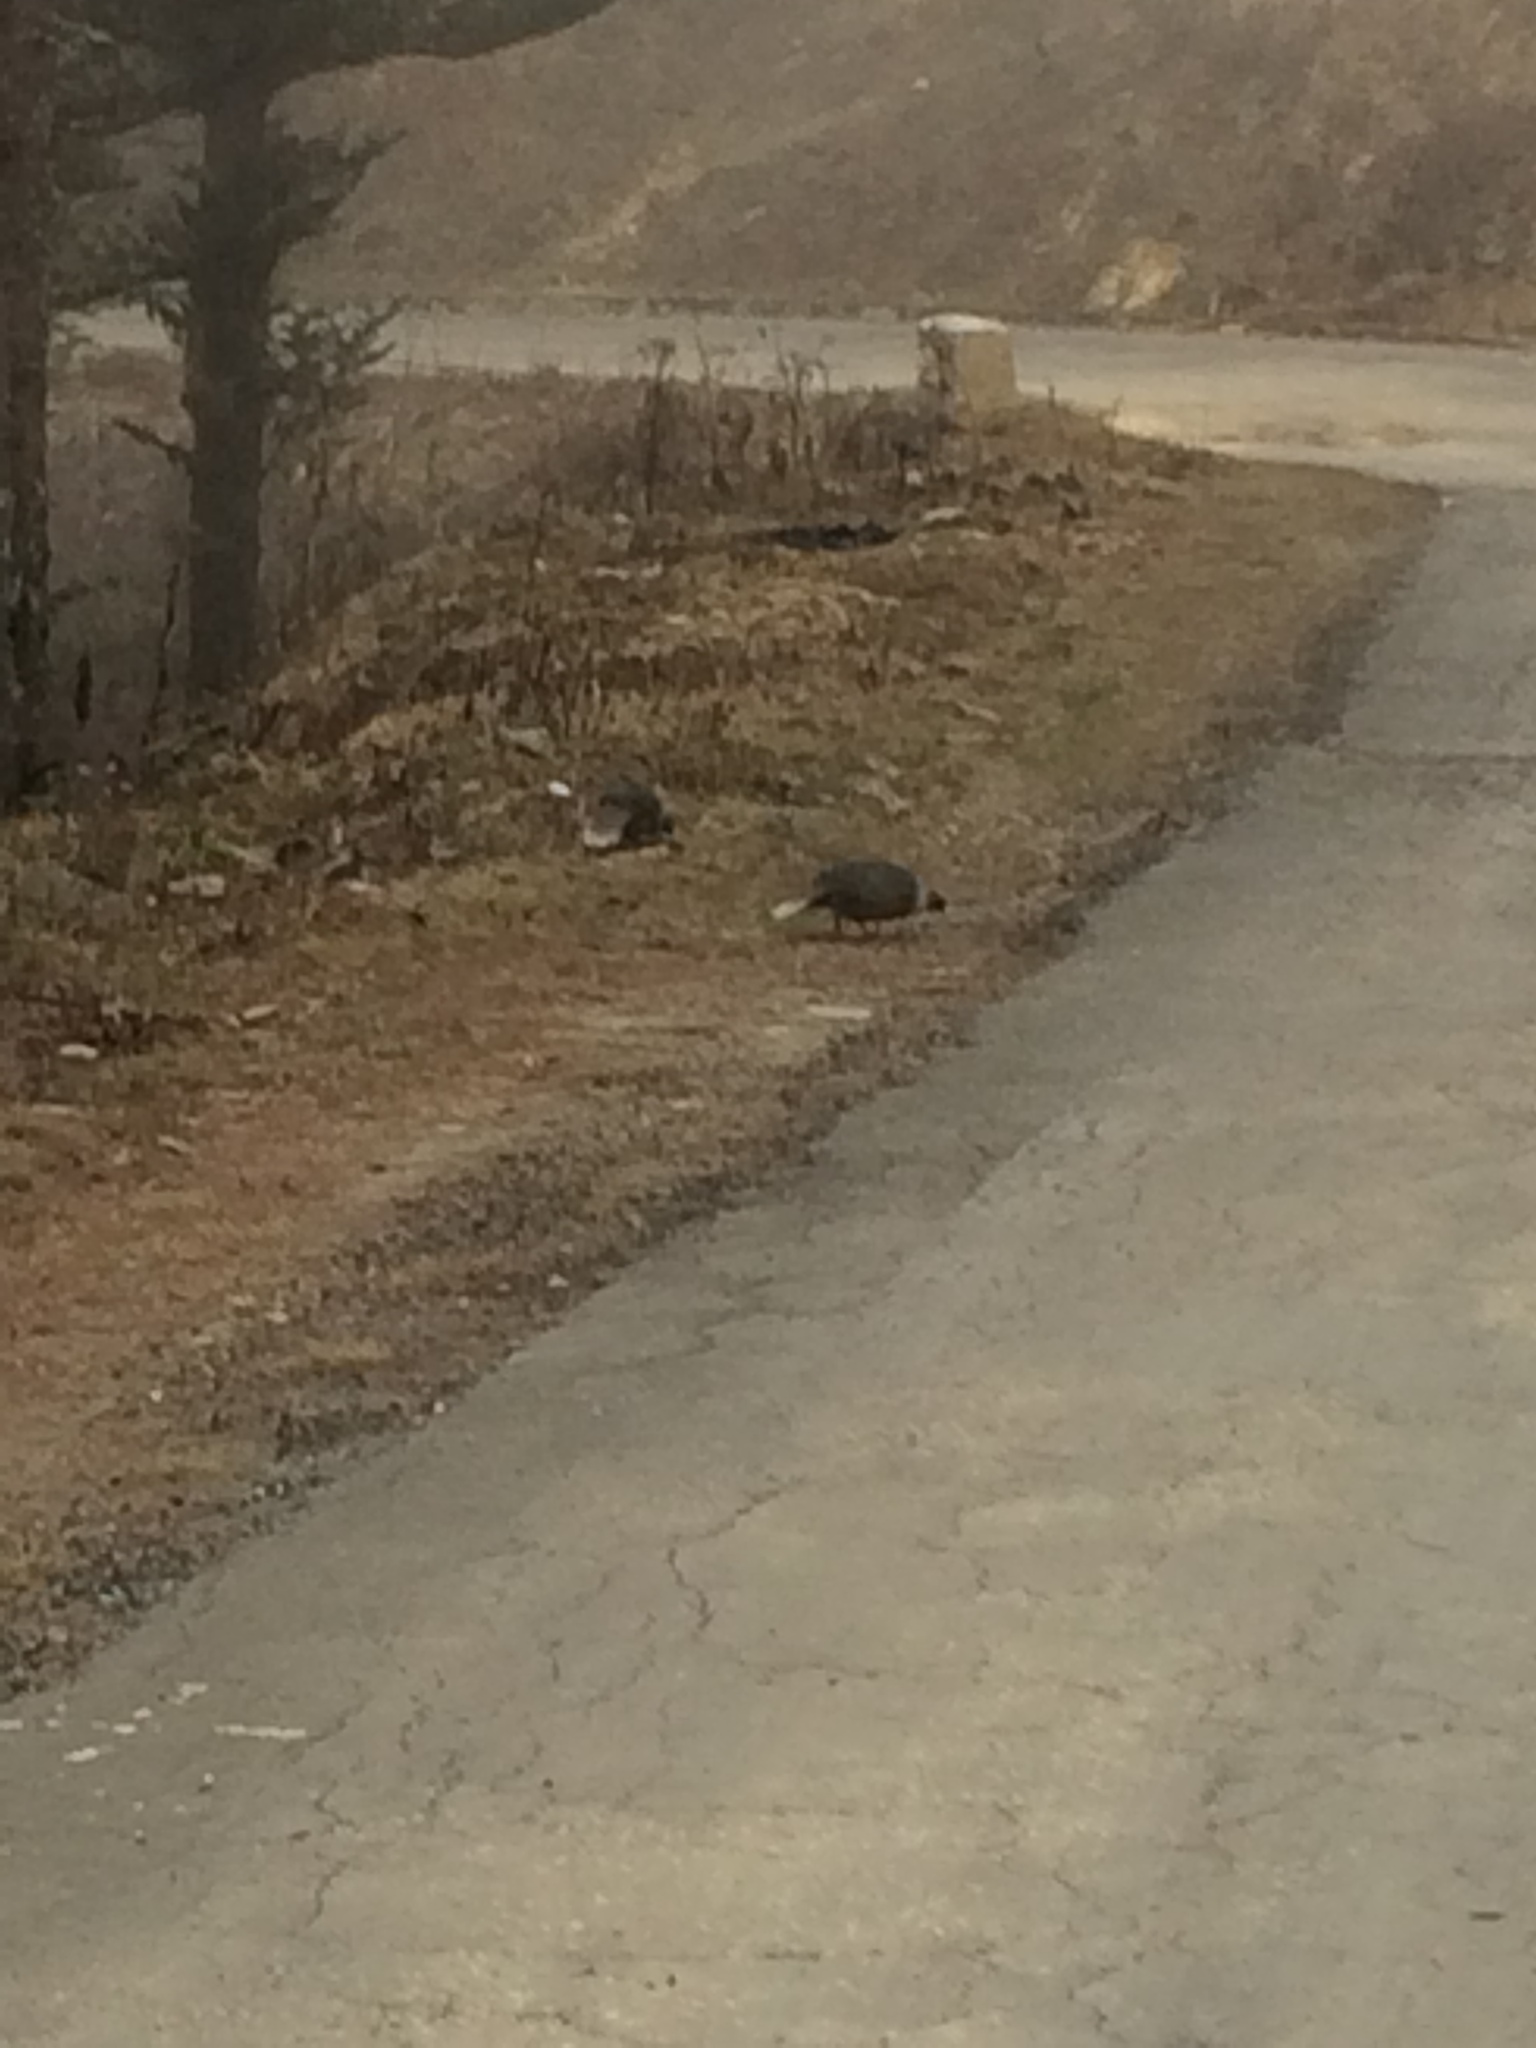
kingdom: Animalia
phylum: Chordata
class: Aves
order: Galliformes
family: Phasianidae
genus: Ithaginis
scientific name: Ithaginis cruentus
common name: Blood pheasant
